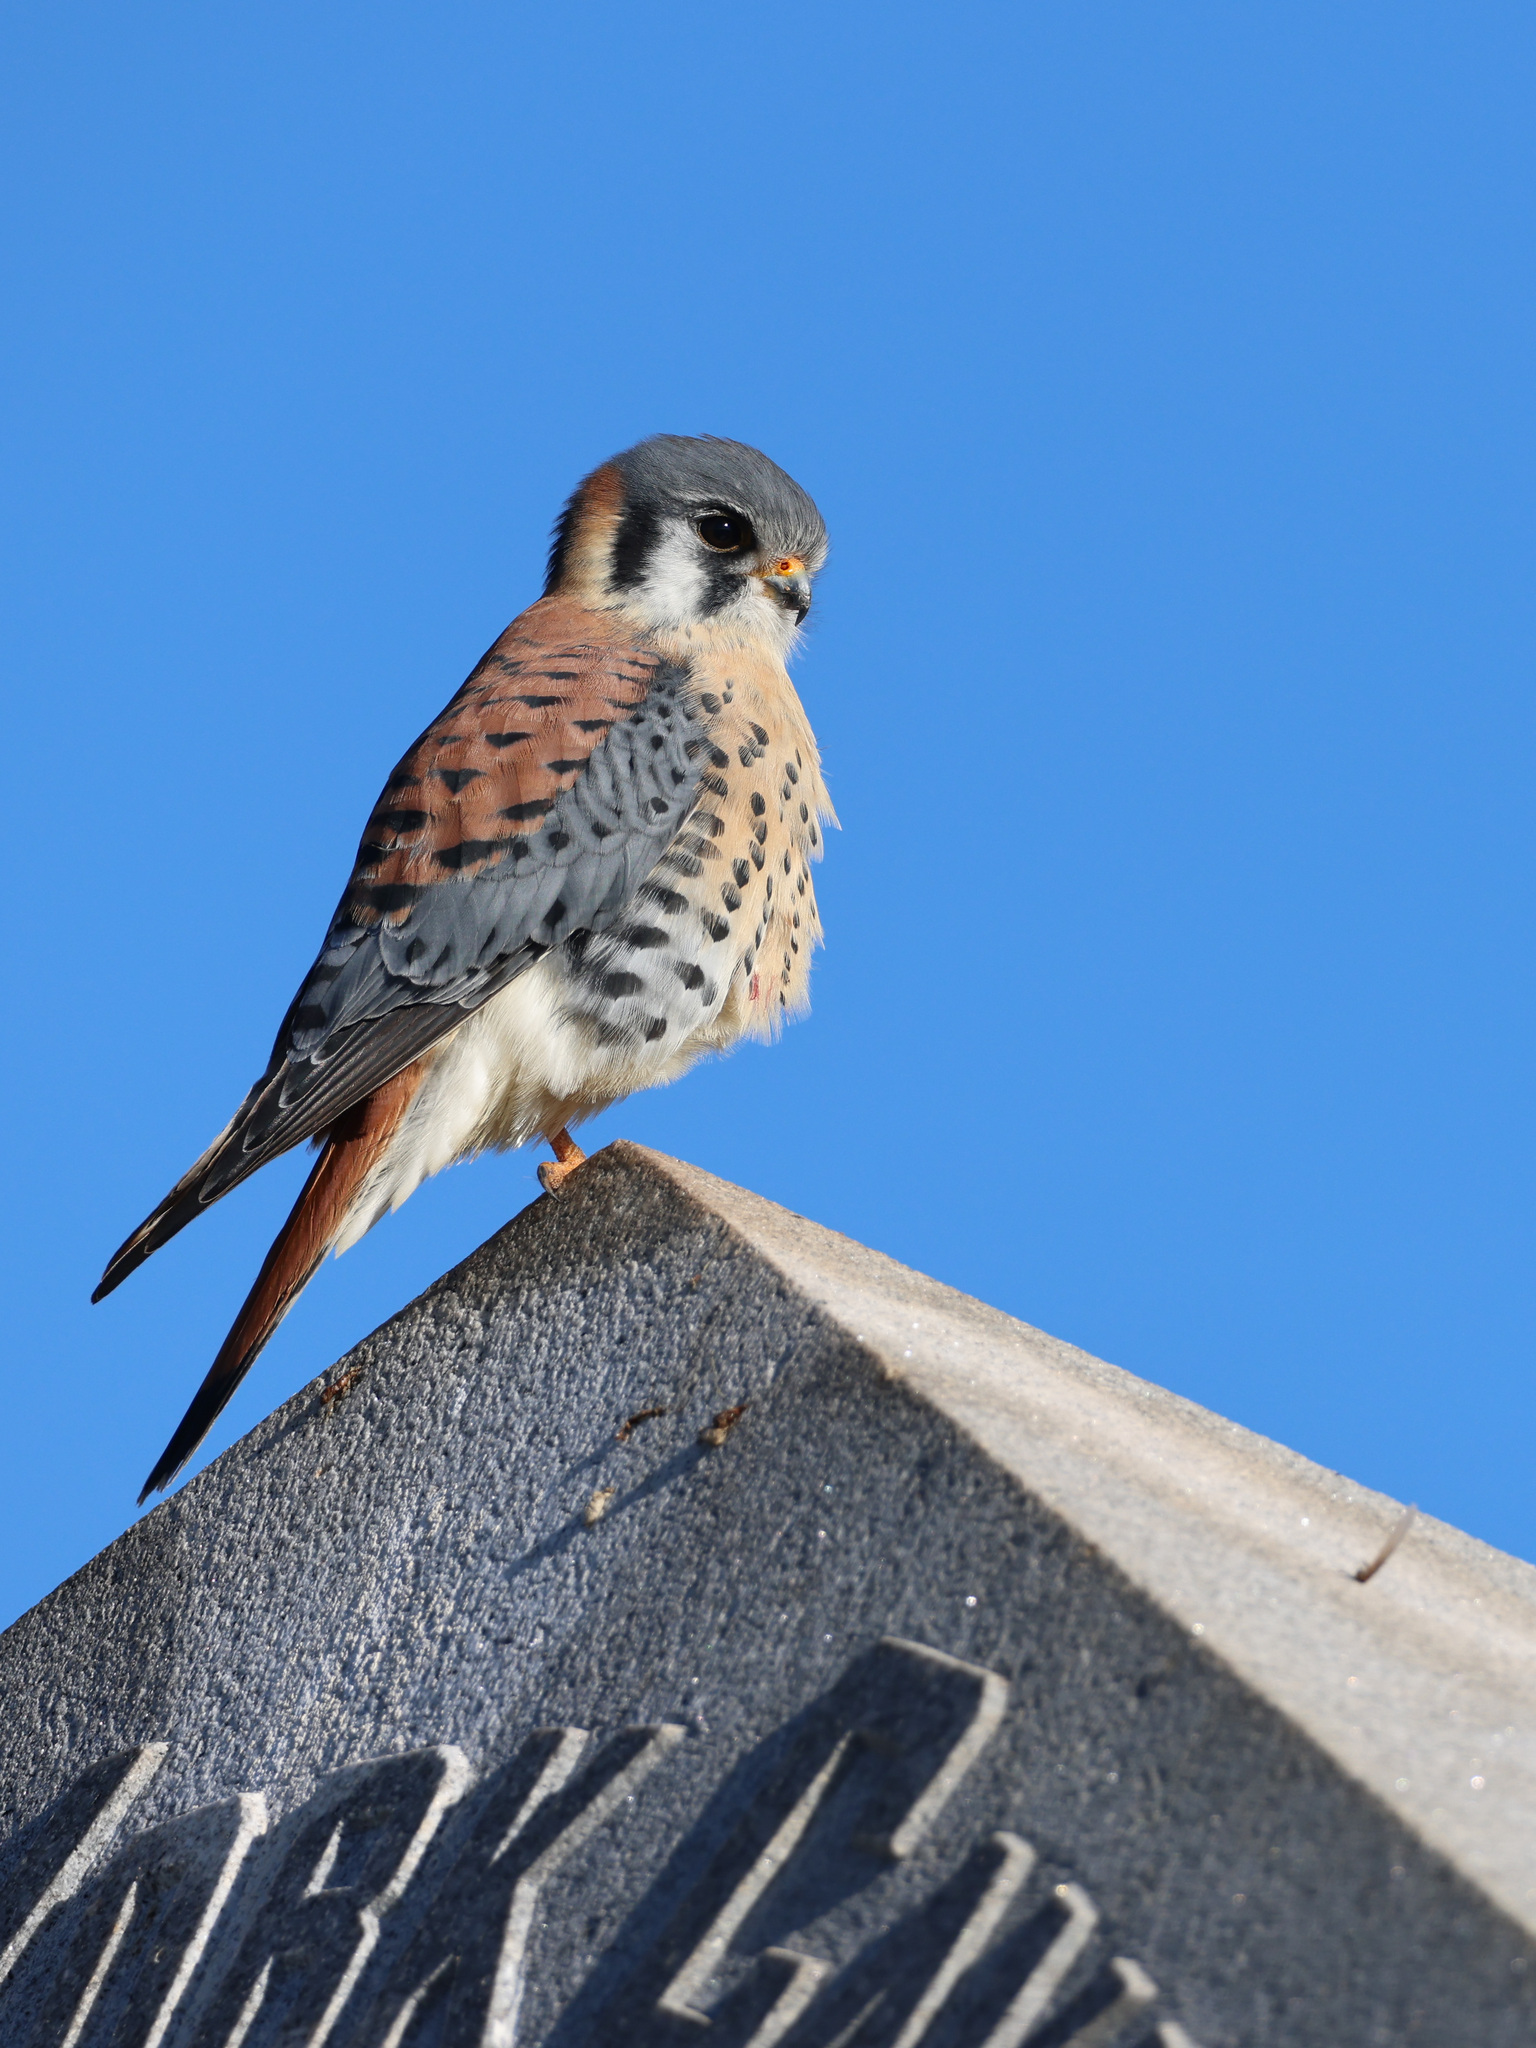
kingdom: Animalia
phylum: Chordata
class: Aves
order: Falconiformes
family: Falconidae
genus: Falco
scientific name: Falco sparverius
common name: American kestrel
